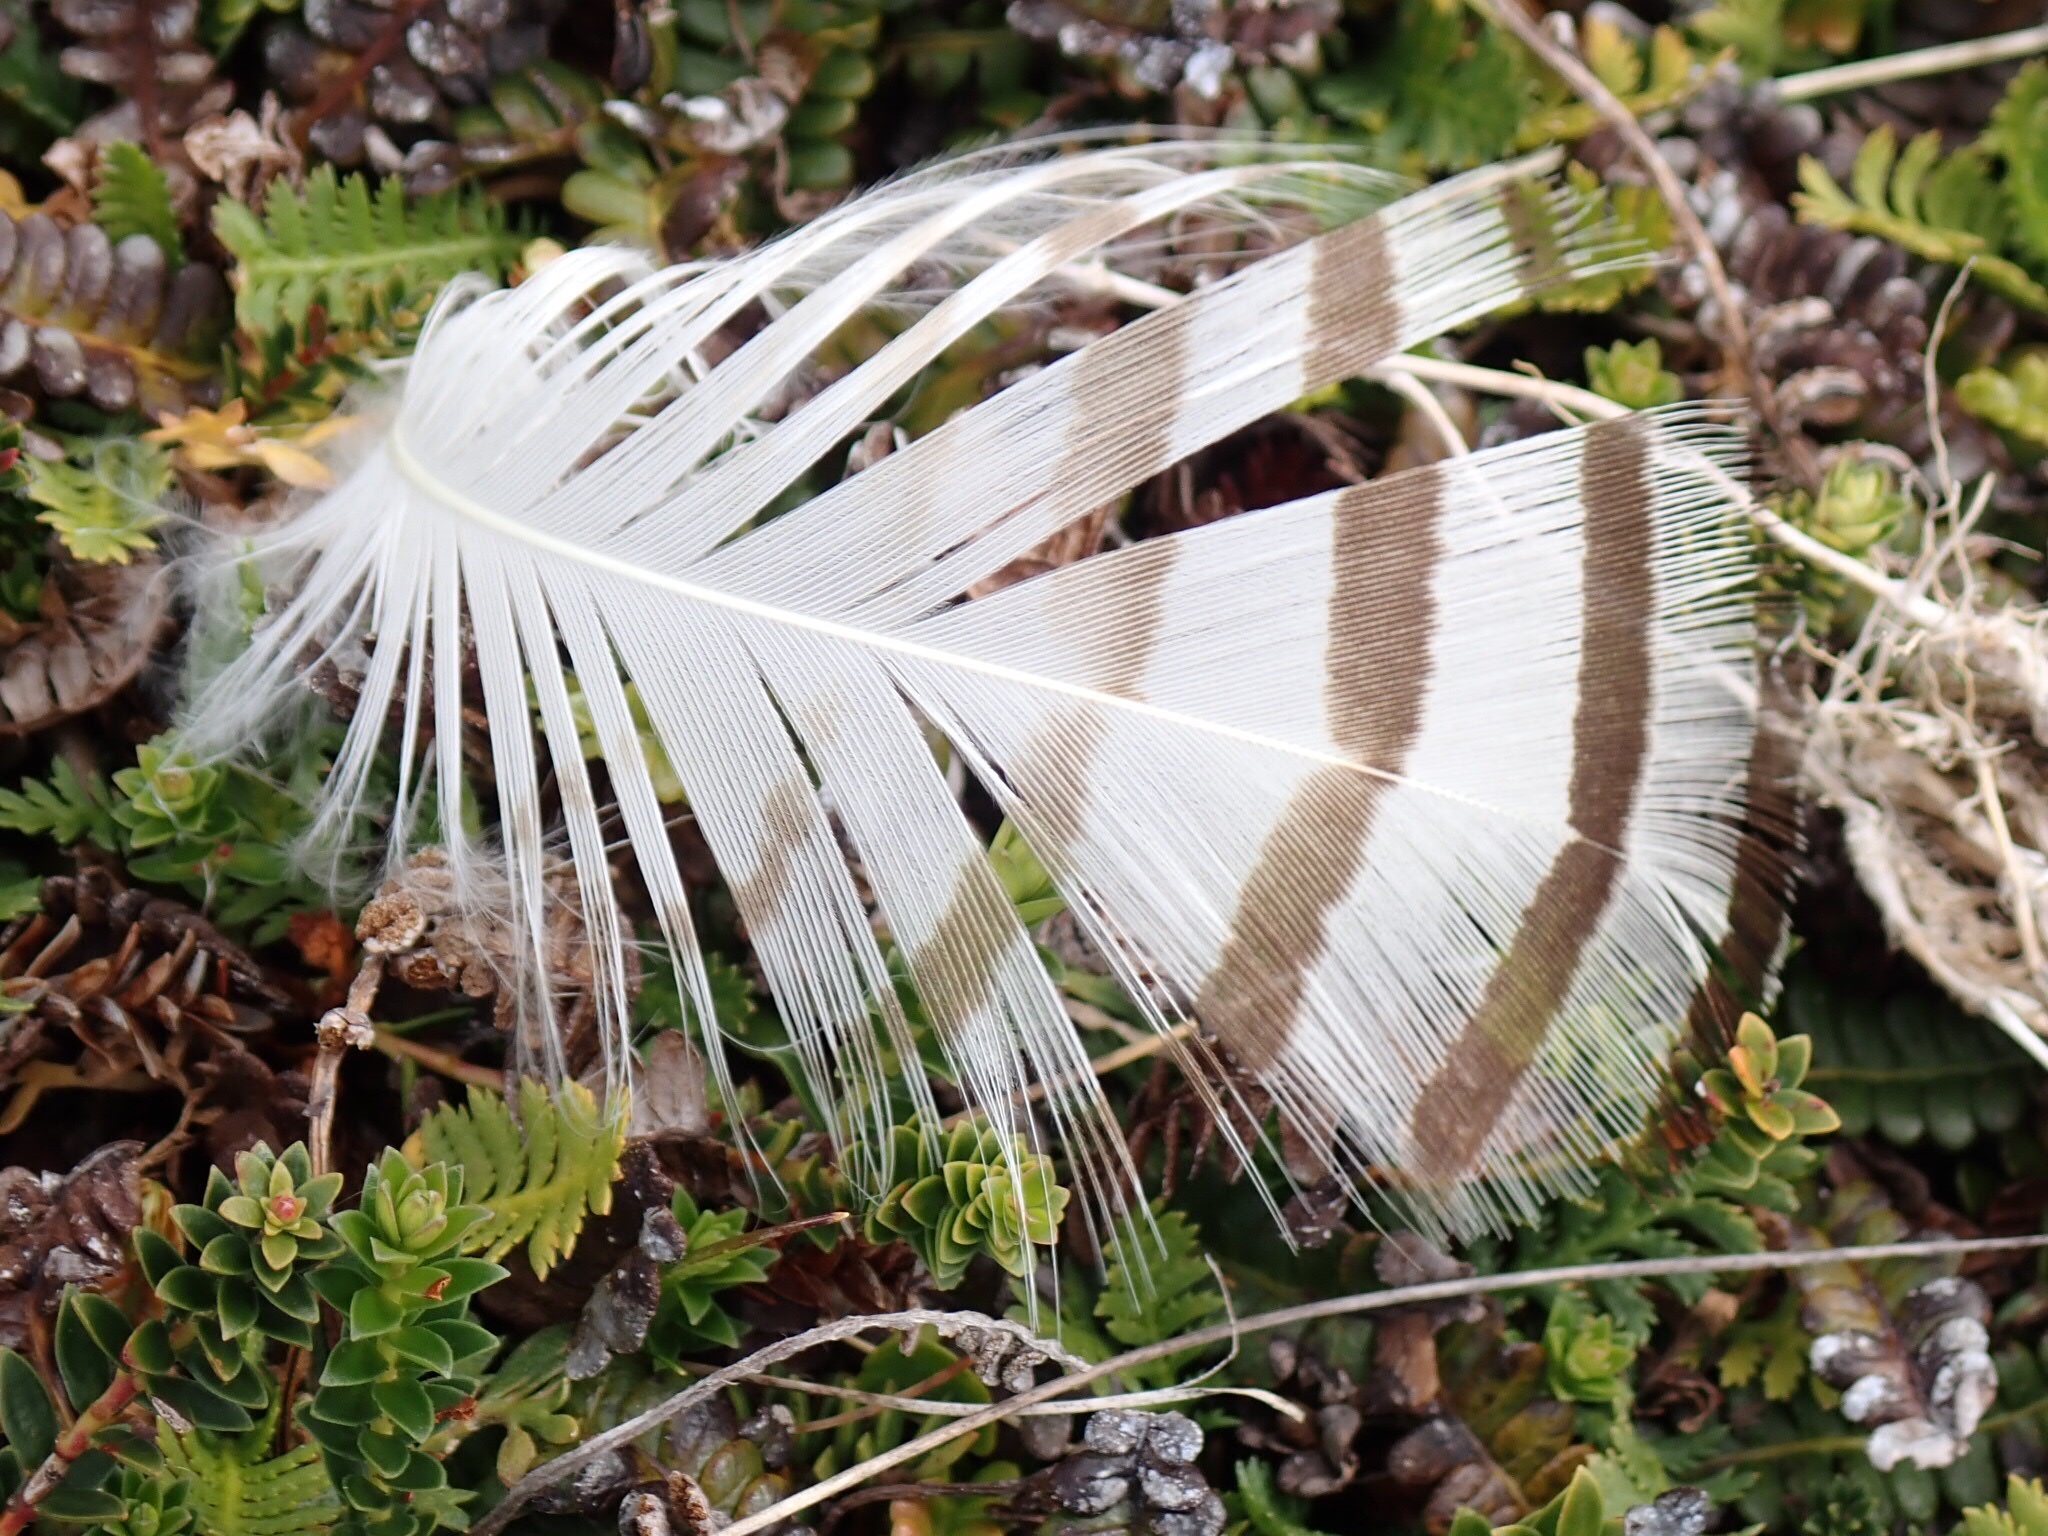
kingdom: Animalia
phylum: Chordata
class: Aves
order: Anseriformes
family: Anatidae
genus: Chloephaga
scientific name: Chloephaga rubidiceps
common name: Ruddy-headed goose
